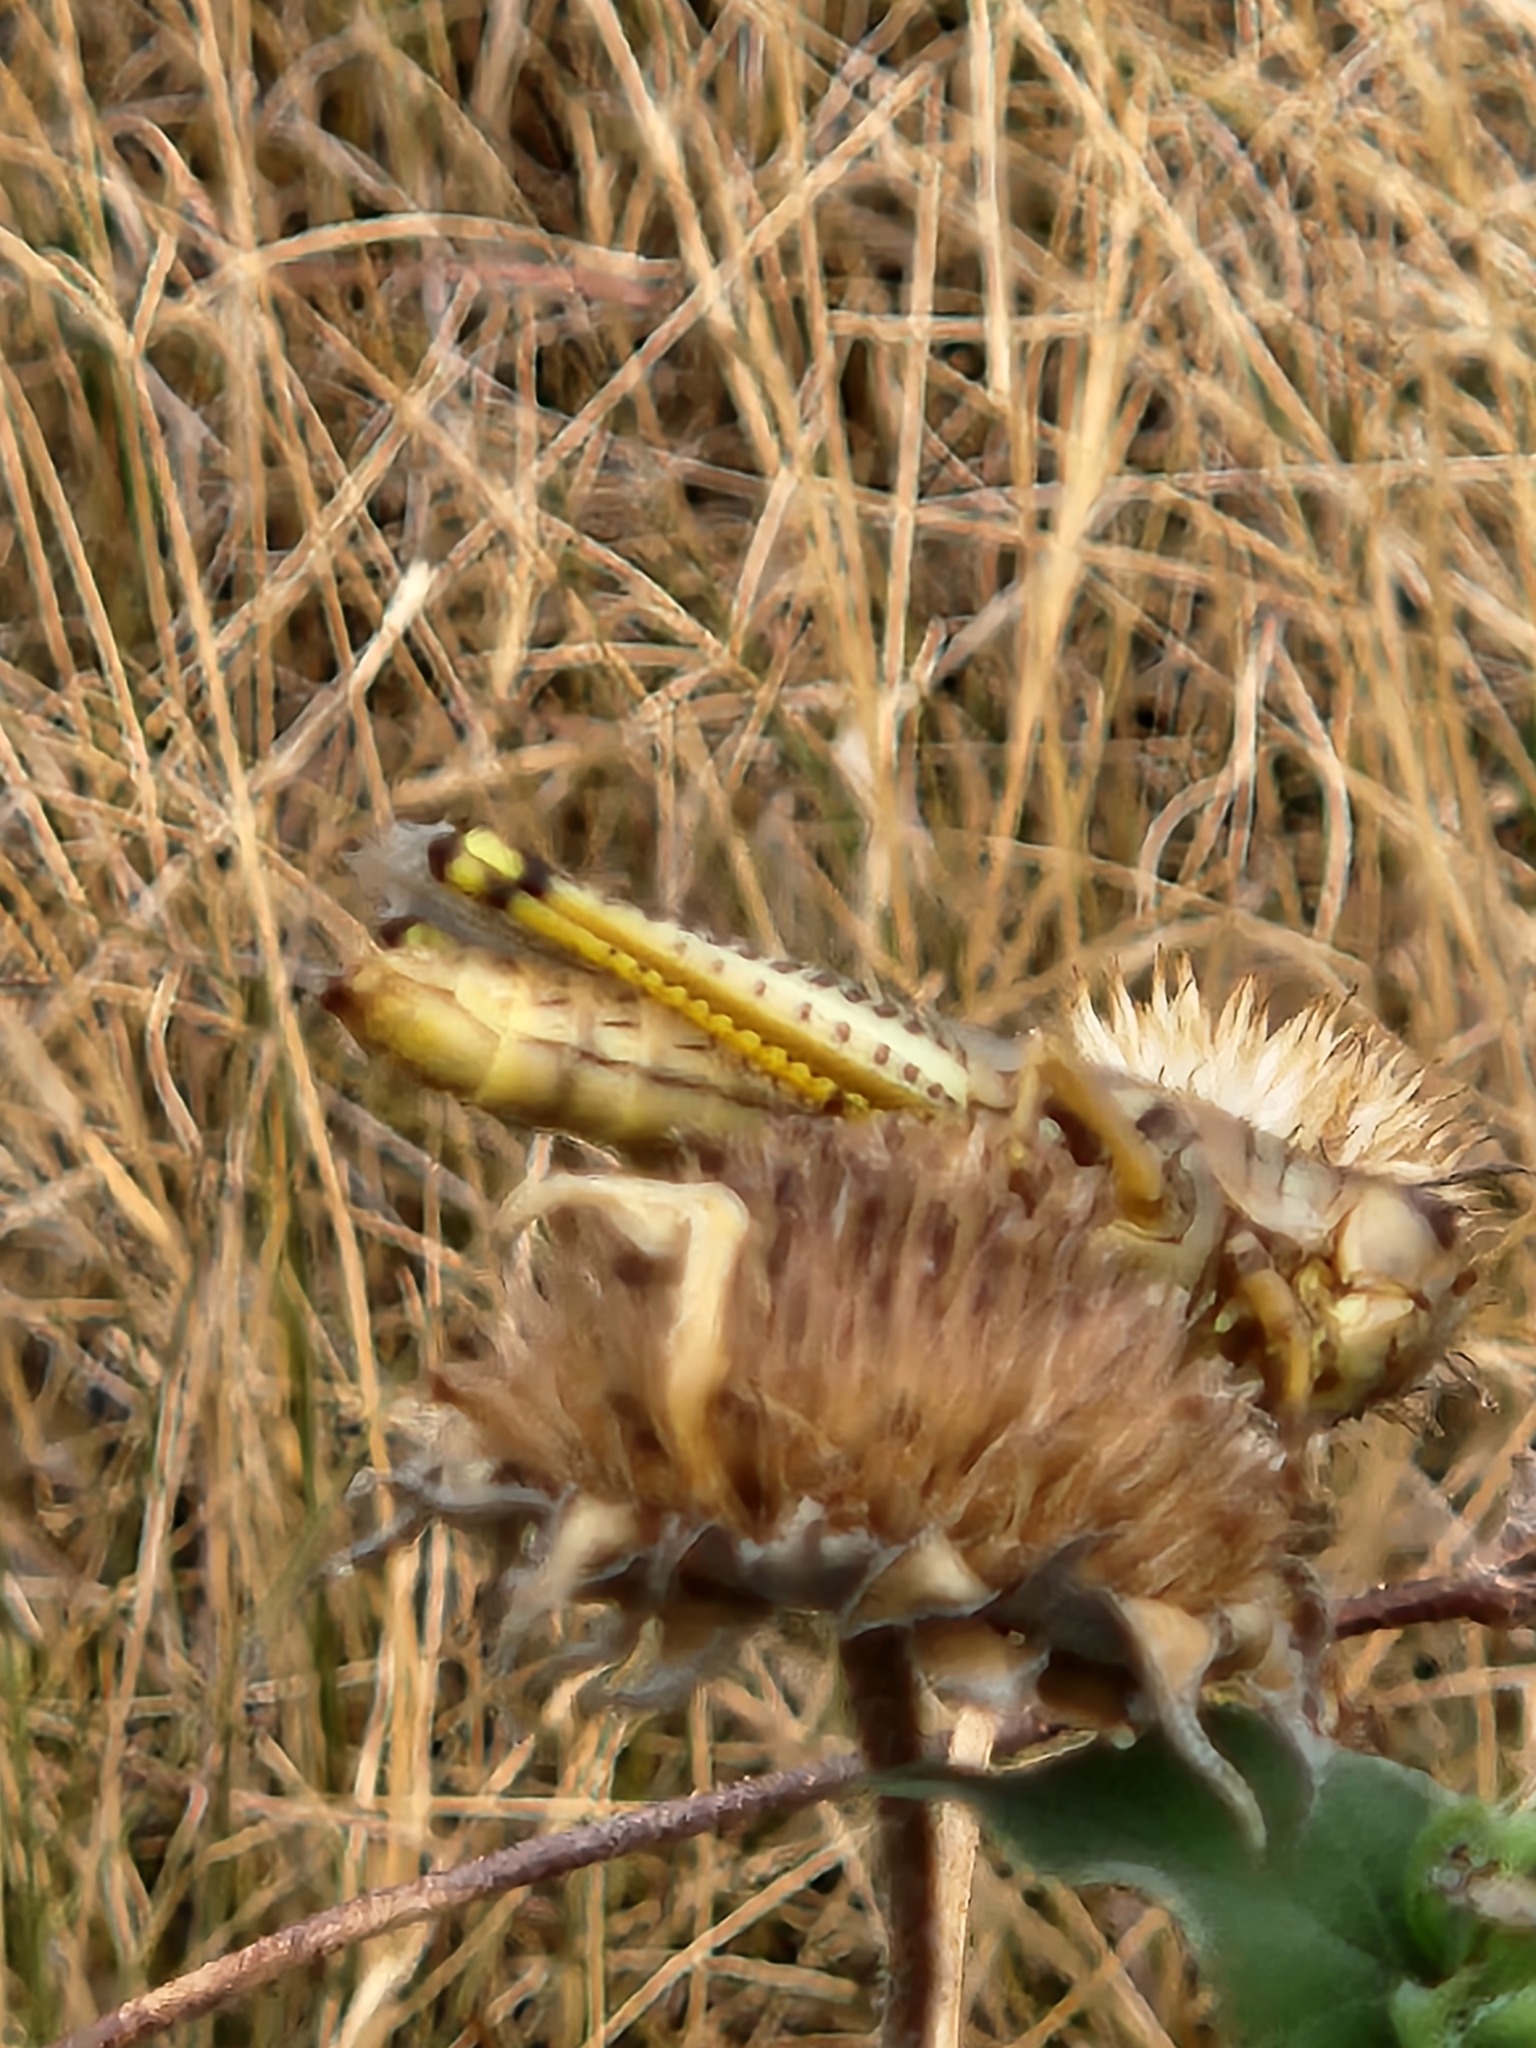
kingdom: Animalia
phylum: Arthropoda
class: Insecta
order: Orthoptera
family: Acrididae
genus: Melanoplus
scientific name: Melanoplus differentialis
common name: Differential grasshopper
